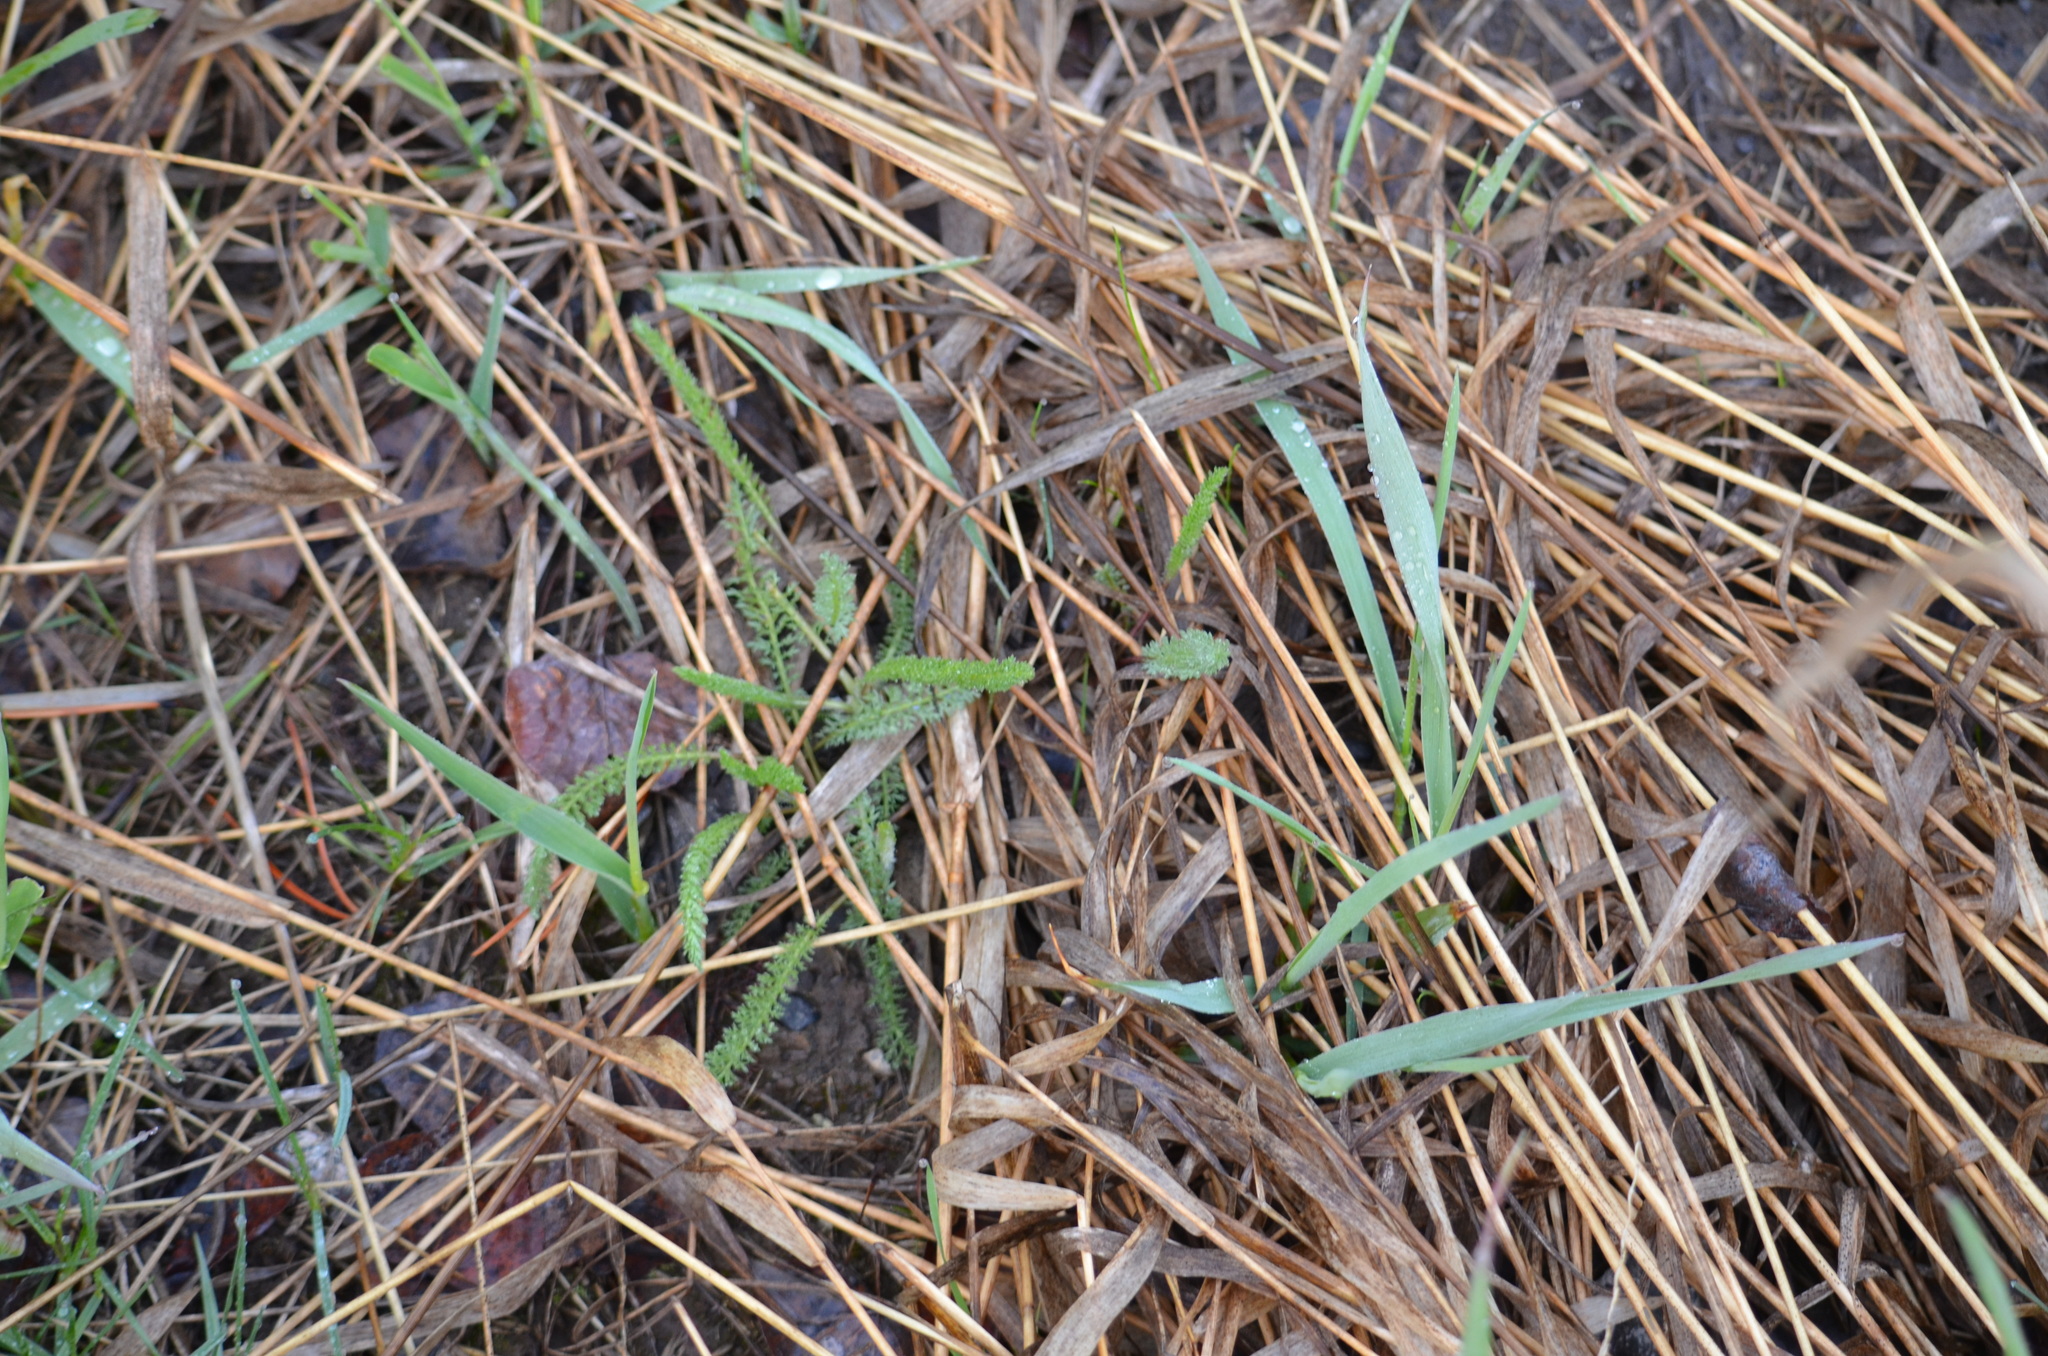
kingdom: Plantae
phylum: Tracheophyta
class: Magnoliopsida
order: Asterales
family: Asteraceae
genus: Achillea
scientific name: Achillea millefolium
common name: Yarrow
